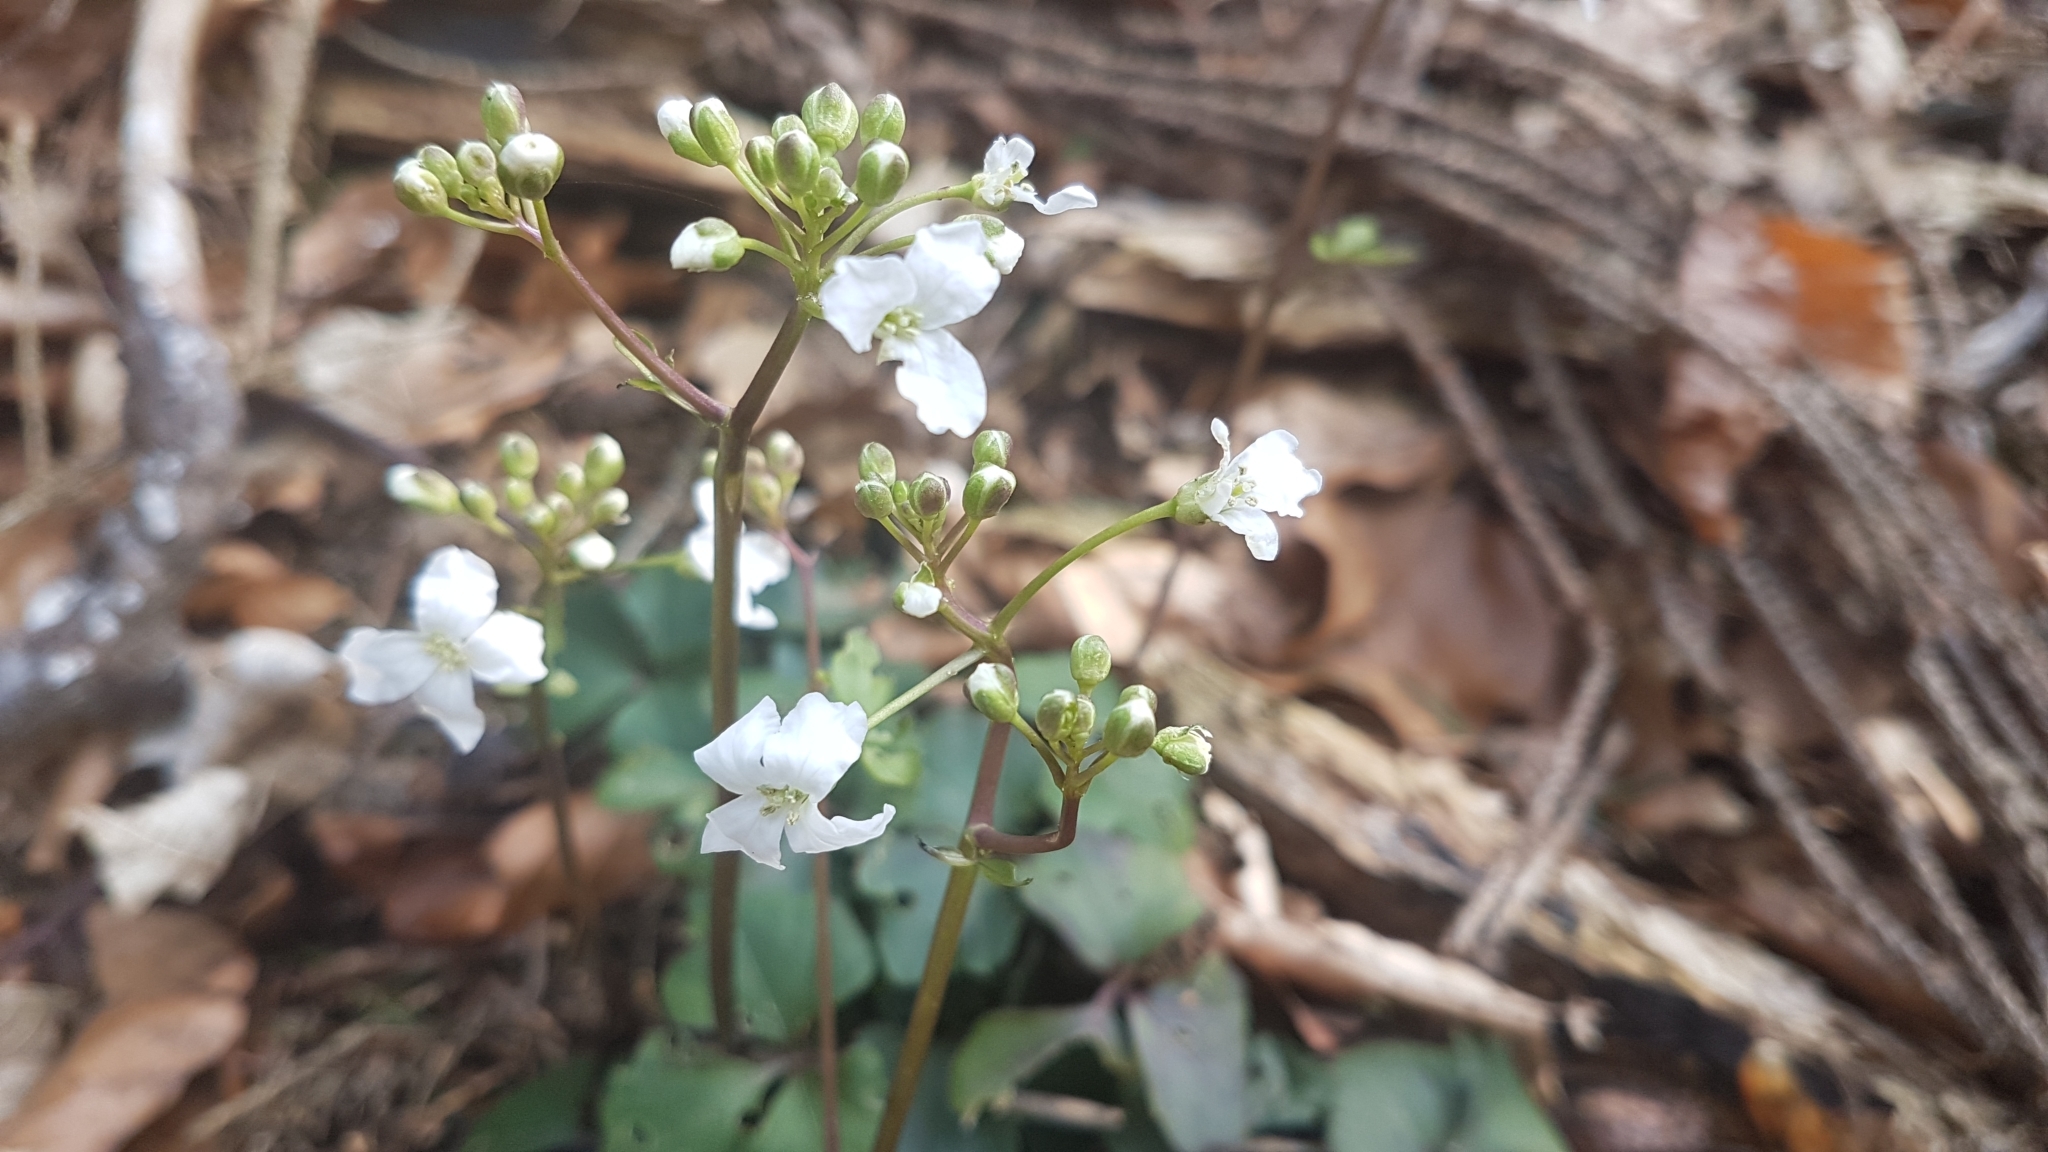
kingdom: Plantae
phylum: Tracheophyta
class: Magnoliopsida
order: Brassicales
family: Brassicaceae
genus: Cardamine
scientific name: Cardamine trifolia
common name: Trefoil cress
